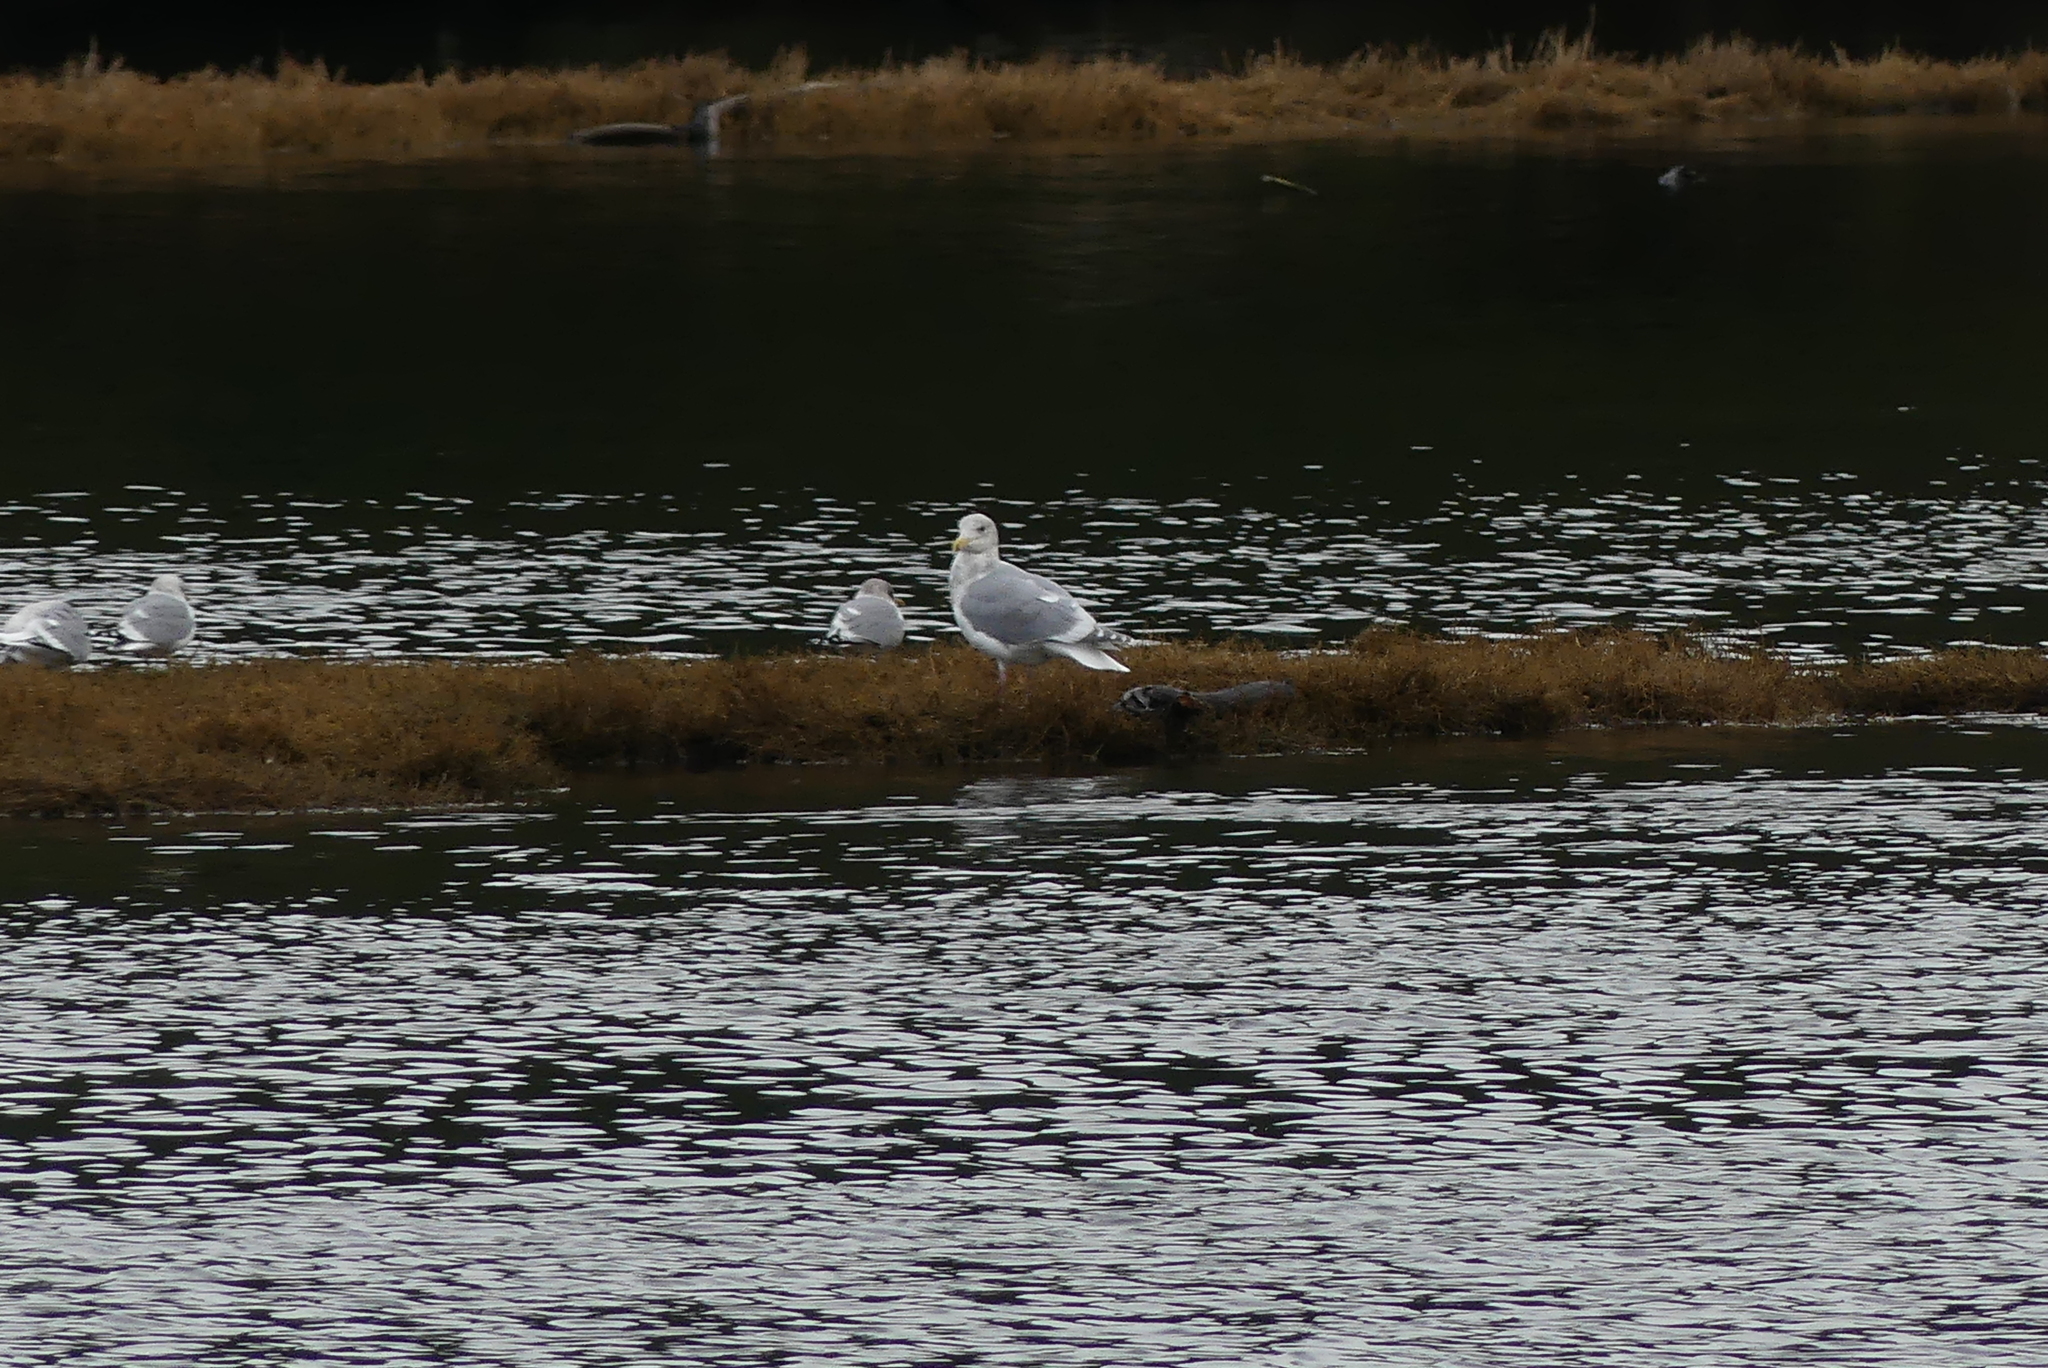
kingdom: Animalia
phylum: Chordata
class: Aves
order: Charadriiformes
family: Laridae
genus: Larus
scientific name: Larus
